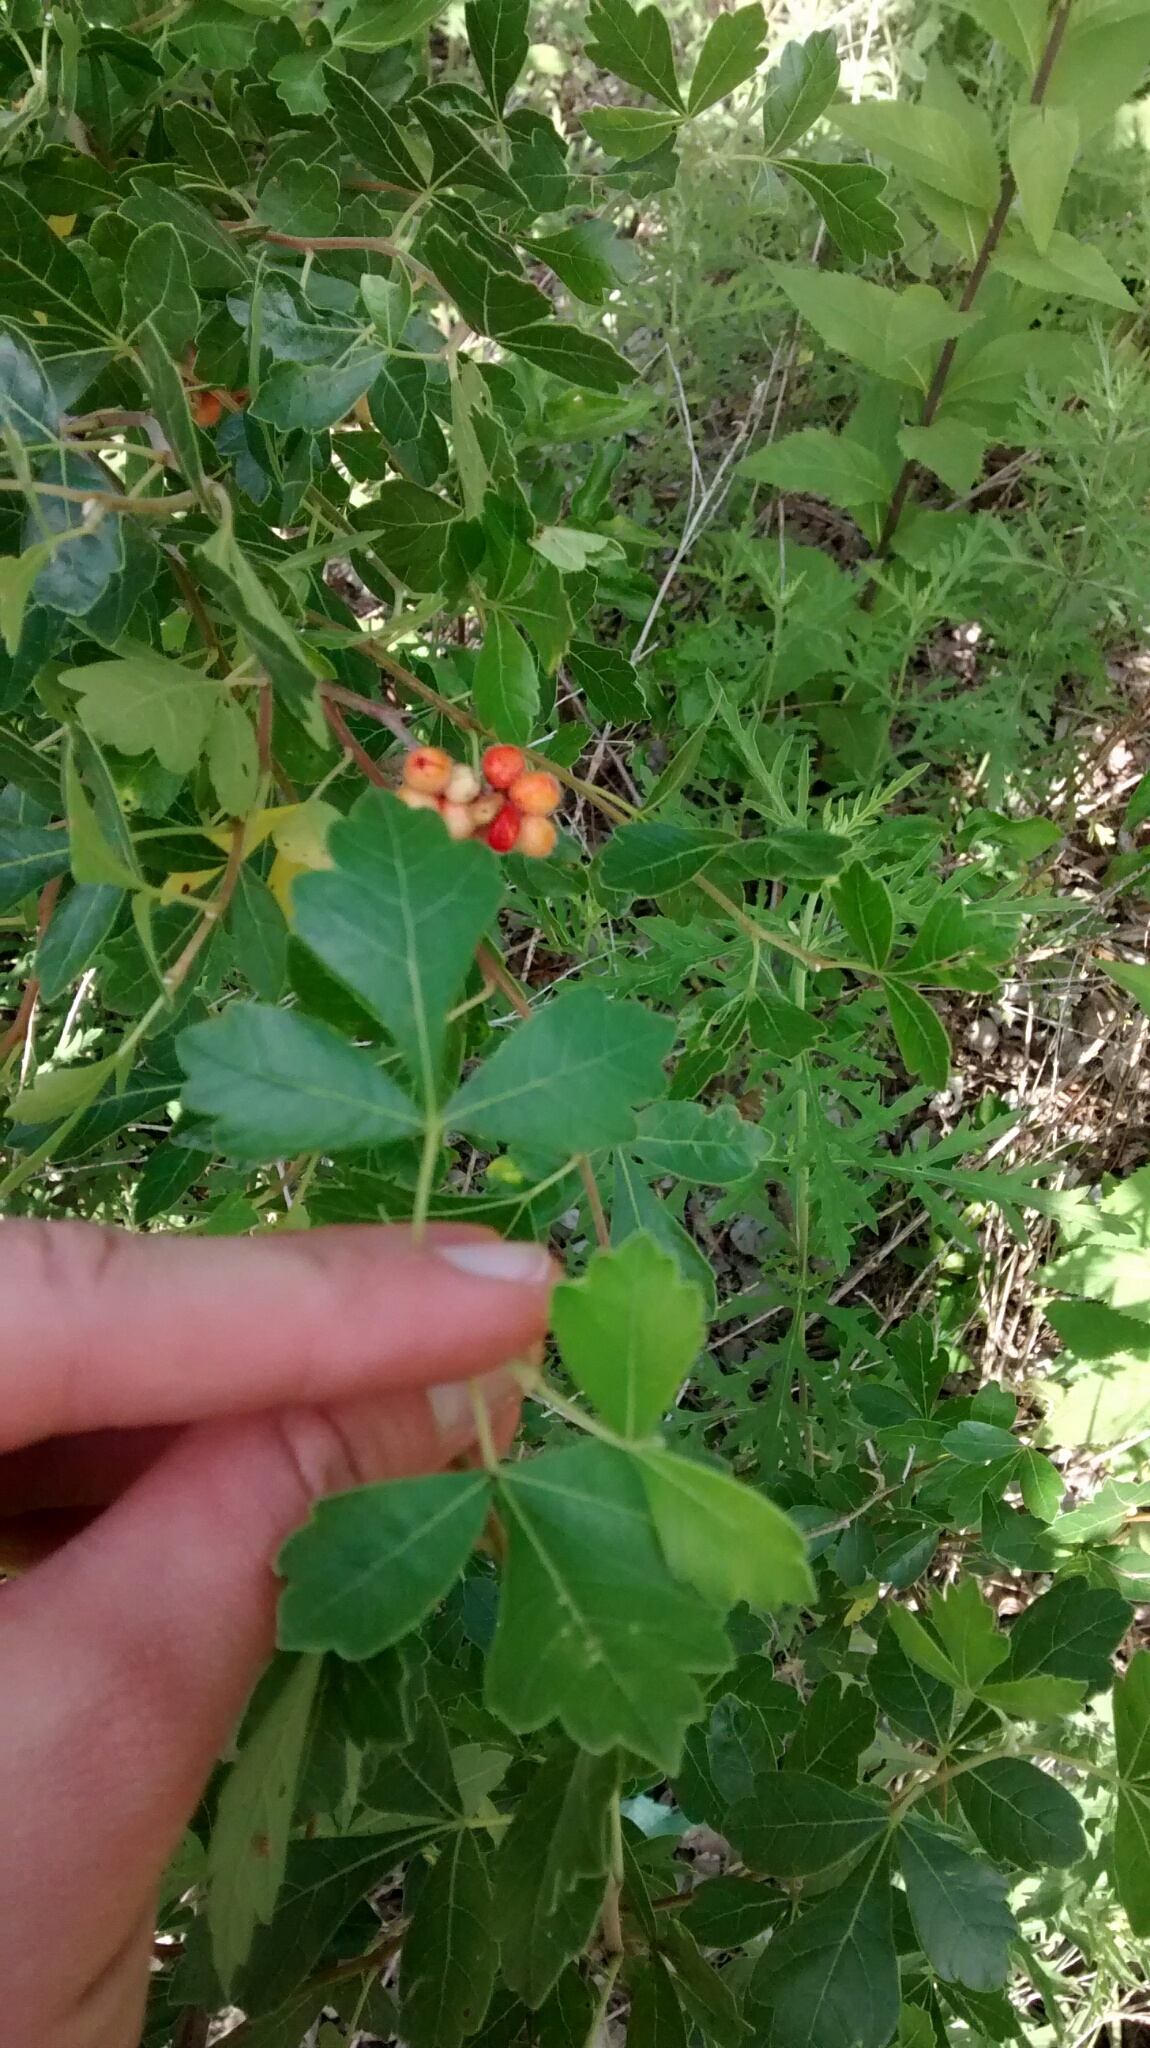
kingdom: Plantae
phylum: Tracheophyta
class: Magnoliopsida
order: Sapindales
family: Anacardiaceae
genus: Rhus
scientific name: Rhus aromatica
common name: Aromatic sumac
